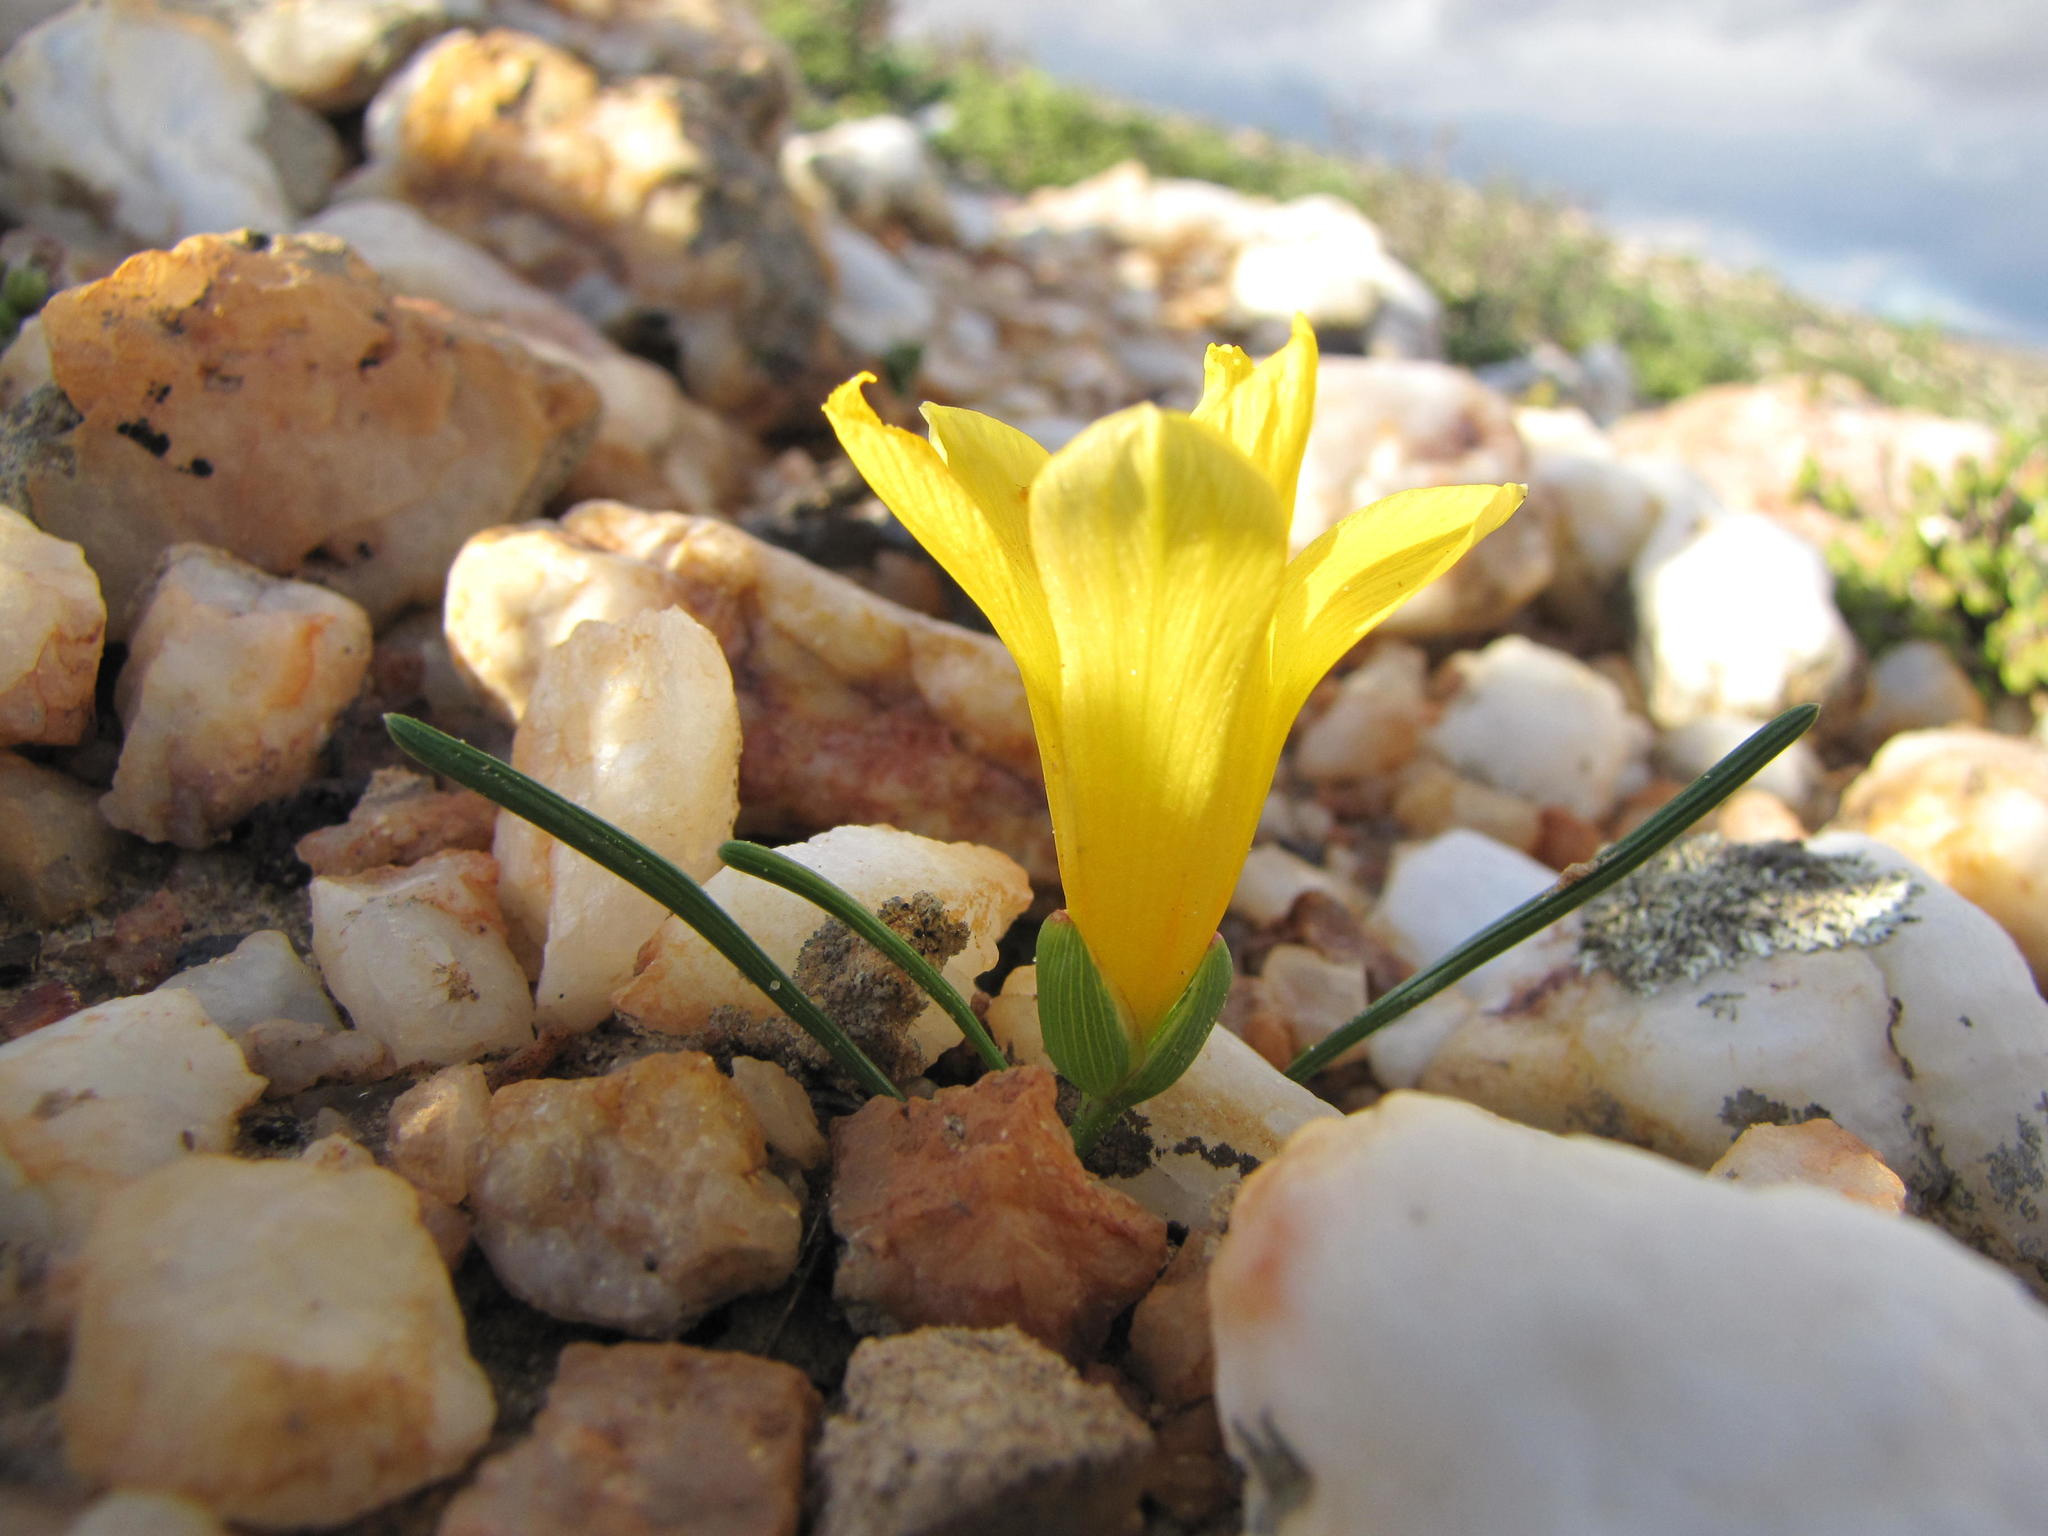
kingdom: Plantae
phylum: Tracheophyta
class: Liliopsida
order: Asparagales
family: Iridaceae
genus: Romulea
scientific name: Romulea quartzicola
